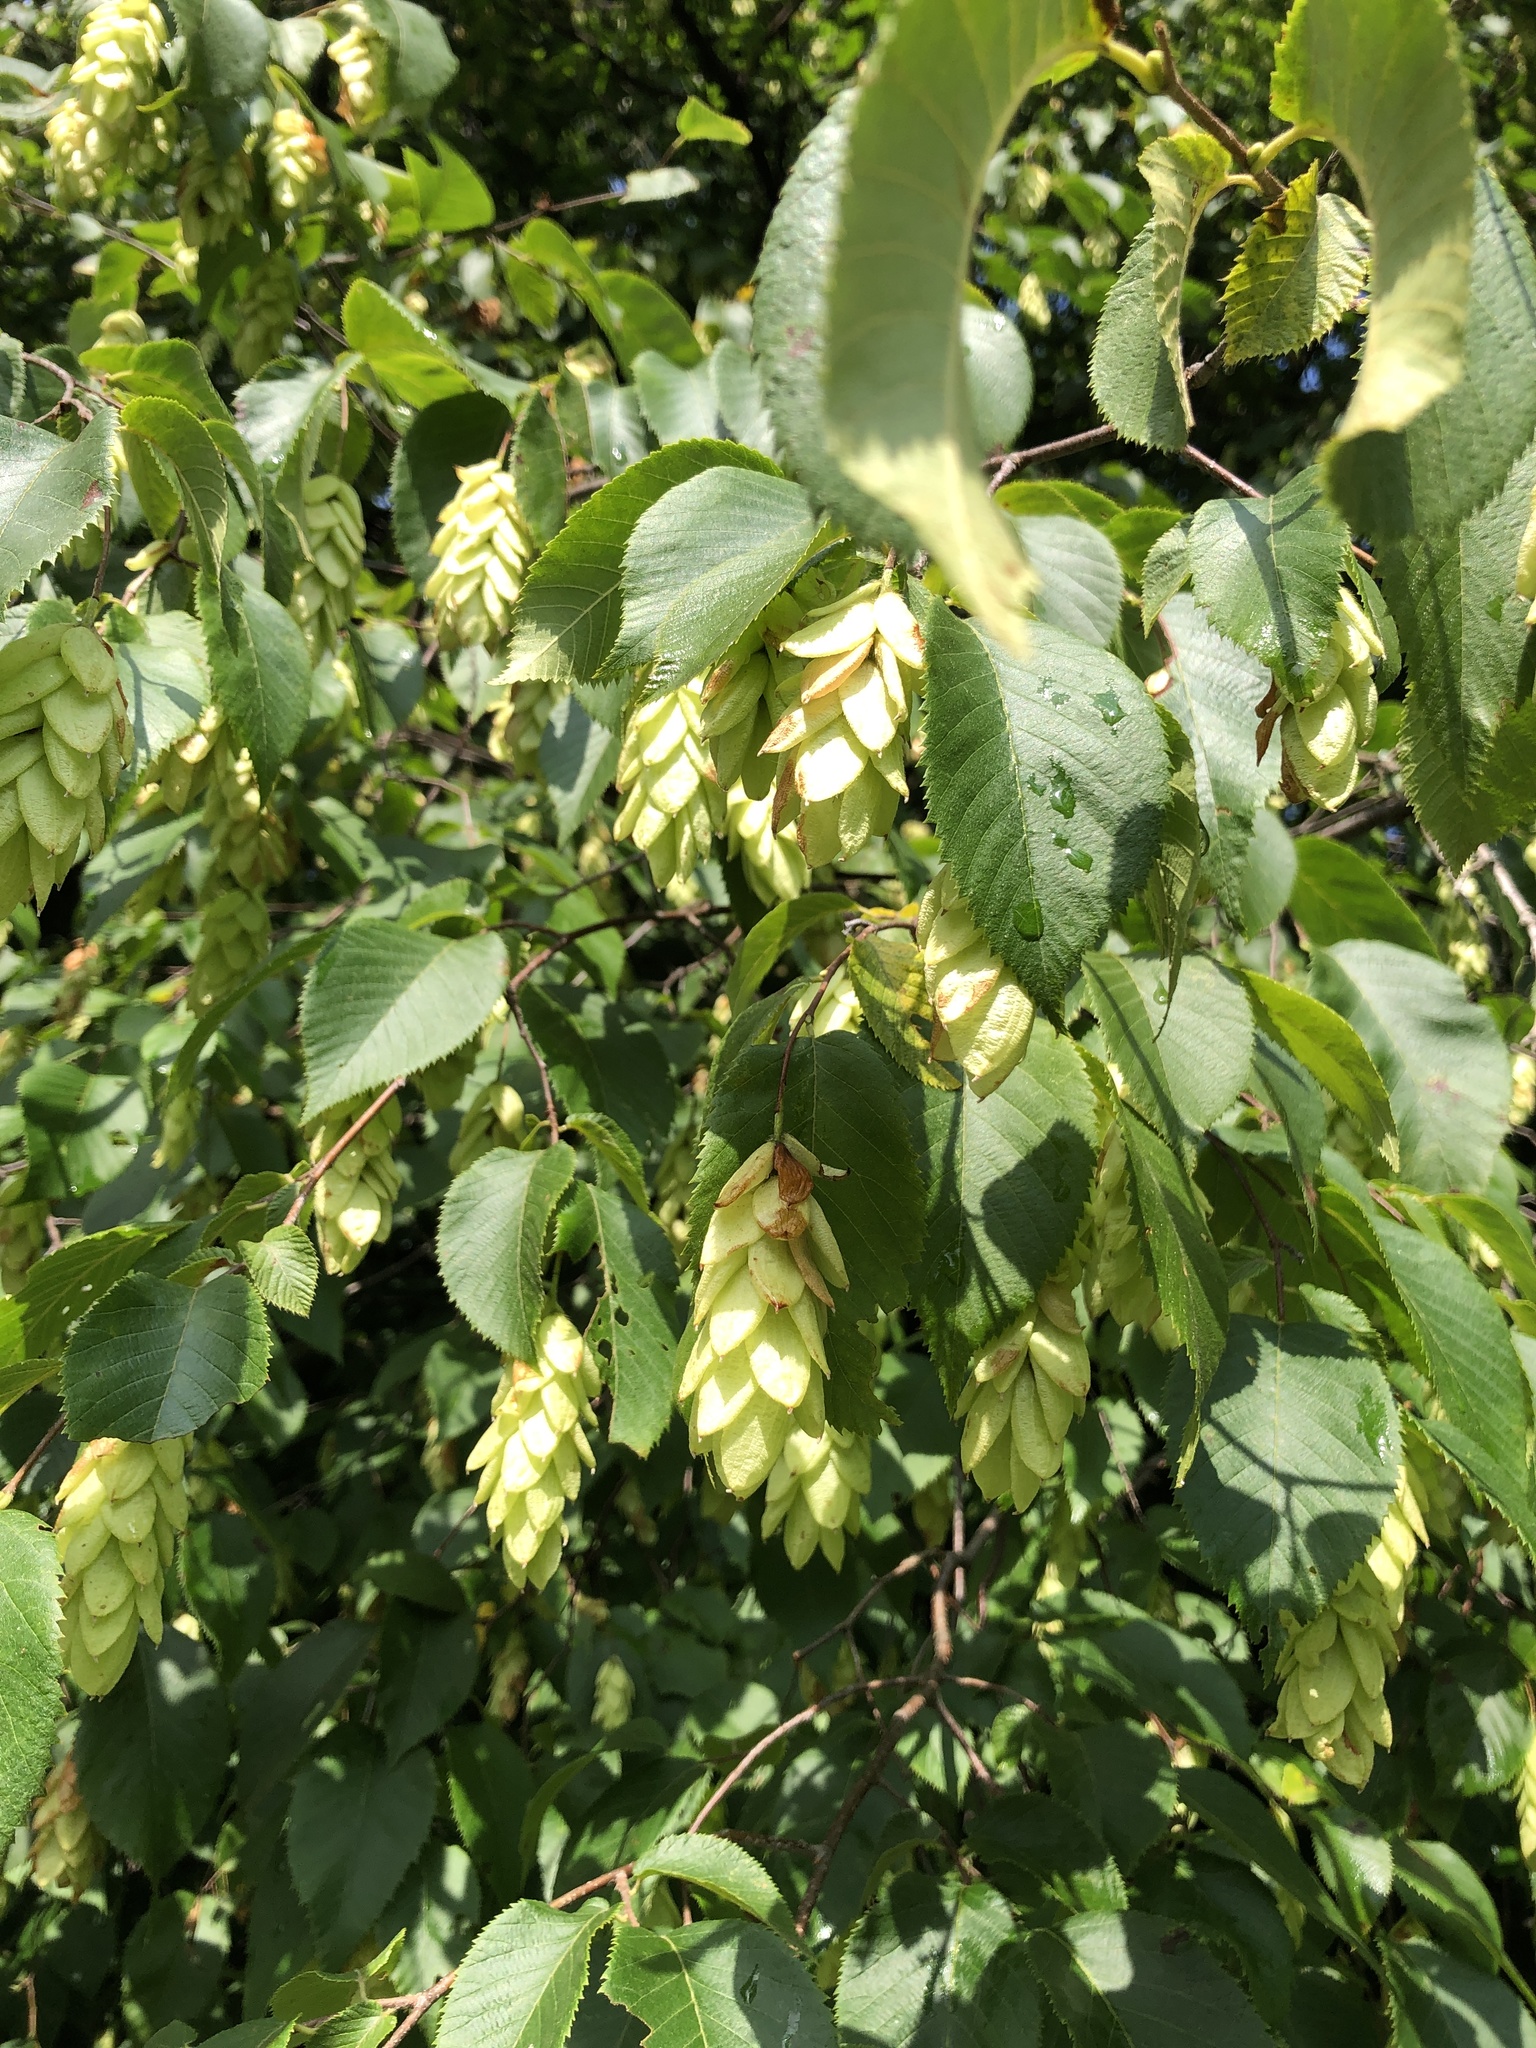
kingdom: Plantae
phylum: Tracheophyta
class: Magnoliopsida
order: Fagales
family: Betulaceae
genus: Ostrya
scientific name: Ostrya virginiana
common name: Ironwood
